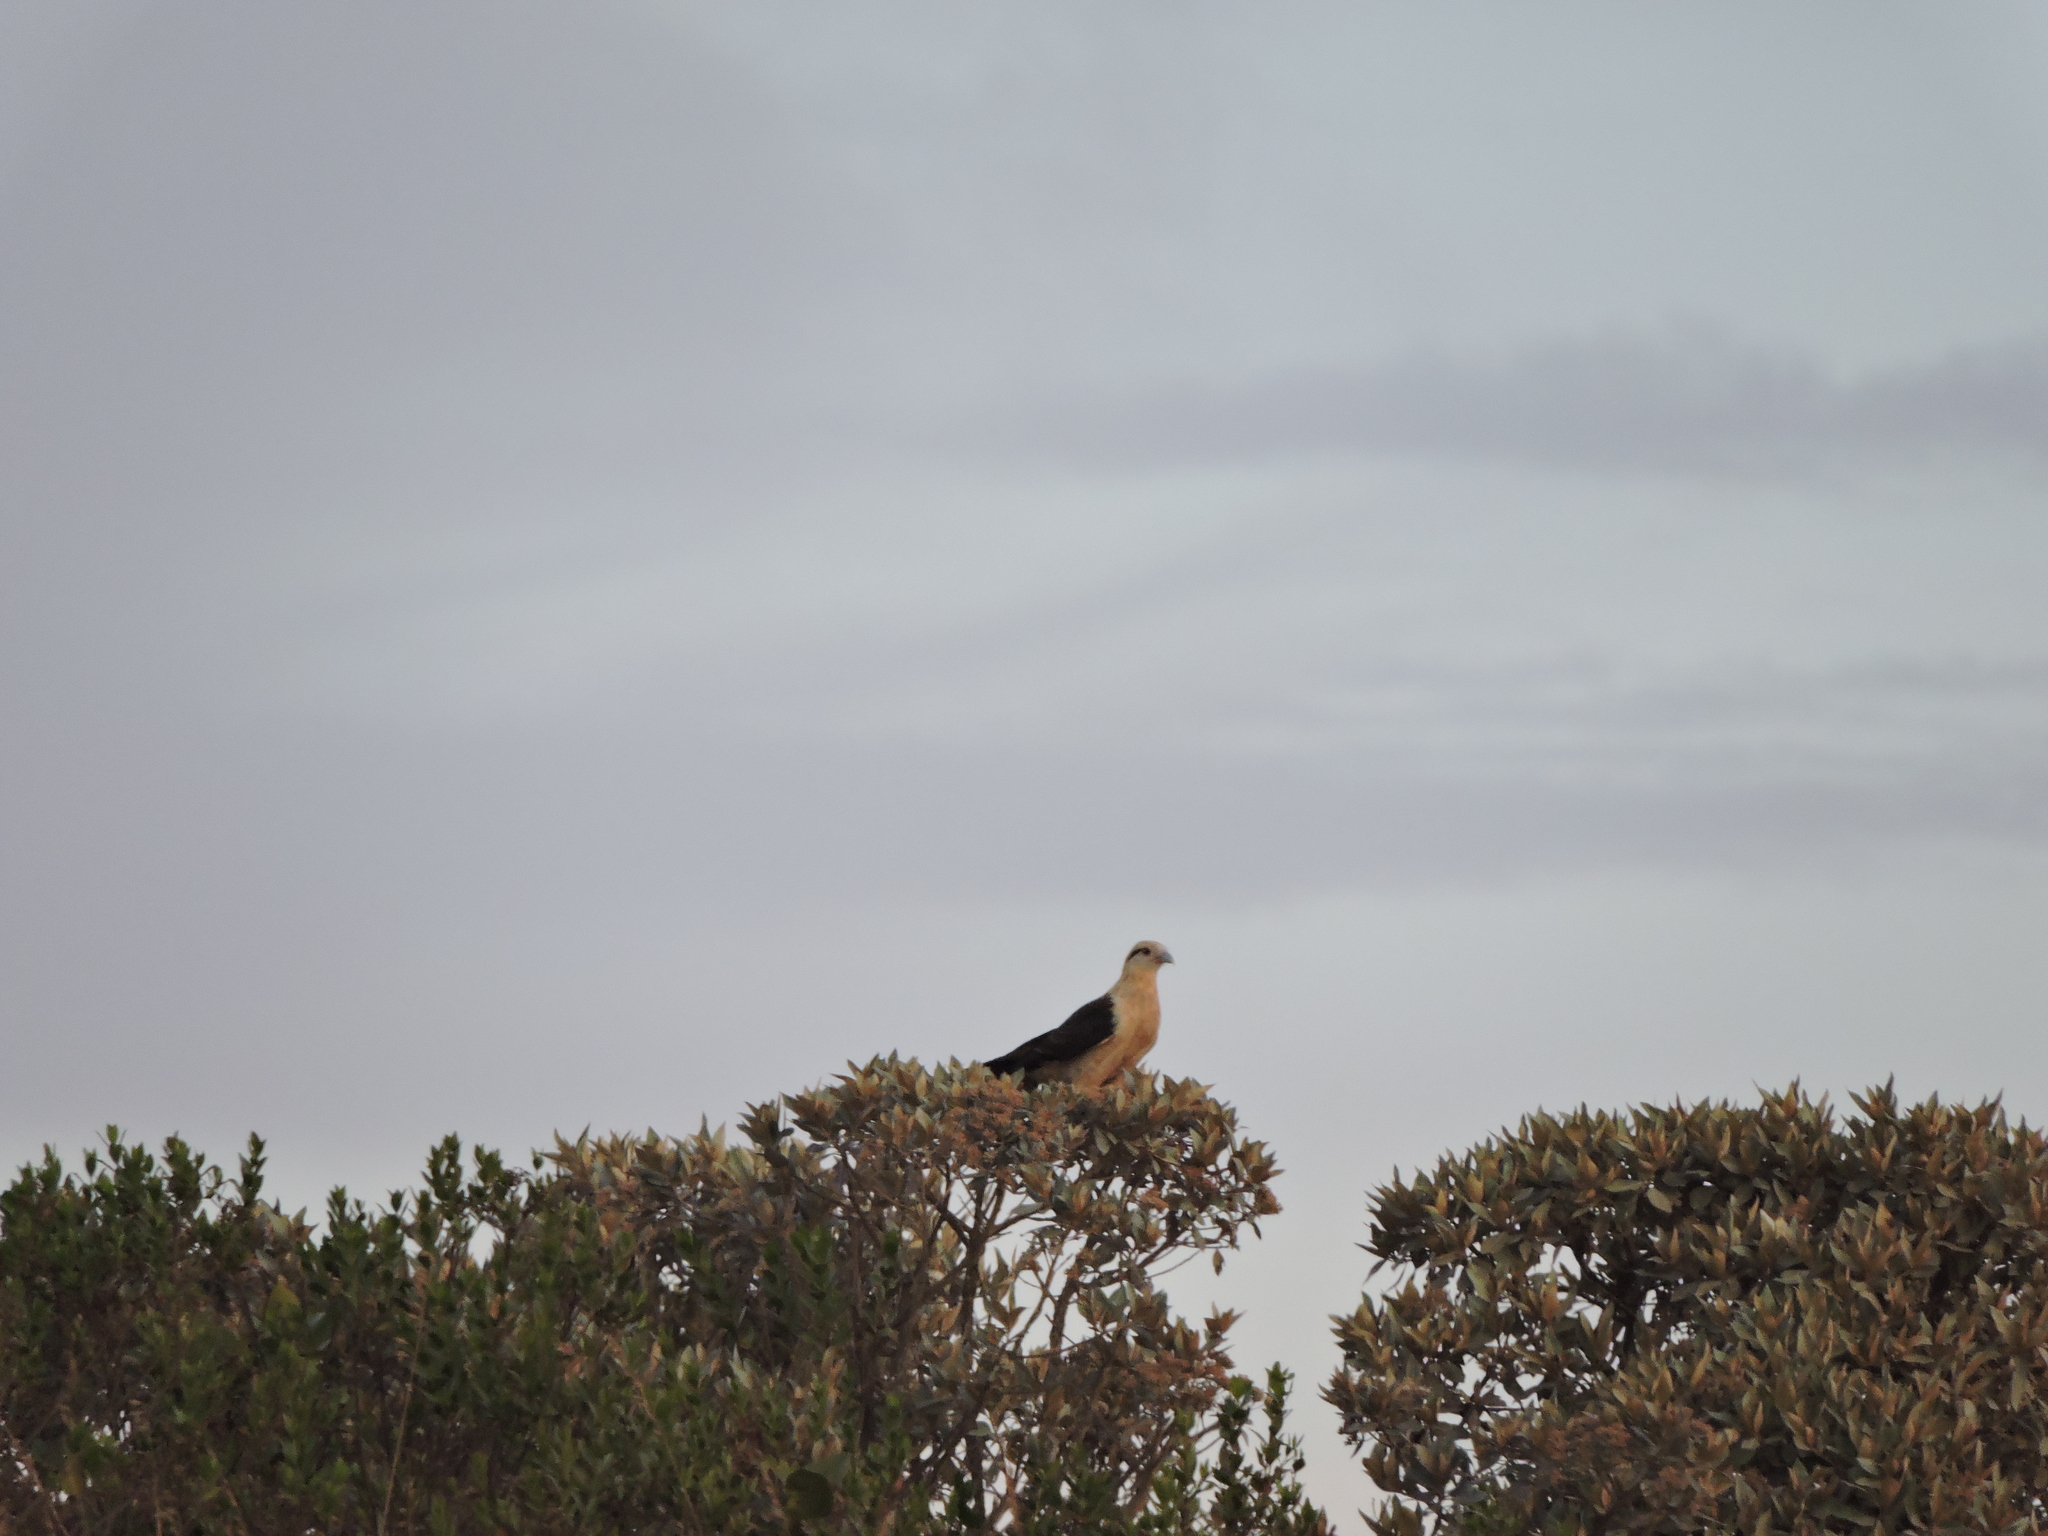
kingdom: Animalia
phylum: Chordata
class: Aves
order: Falconiformes
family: Falconidae
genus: Daptrius
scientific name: Daptrius
